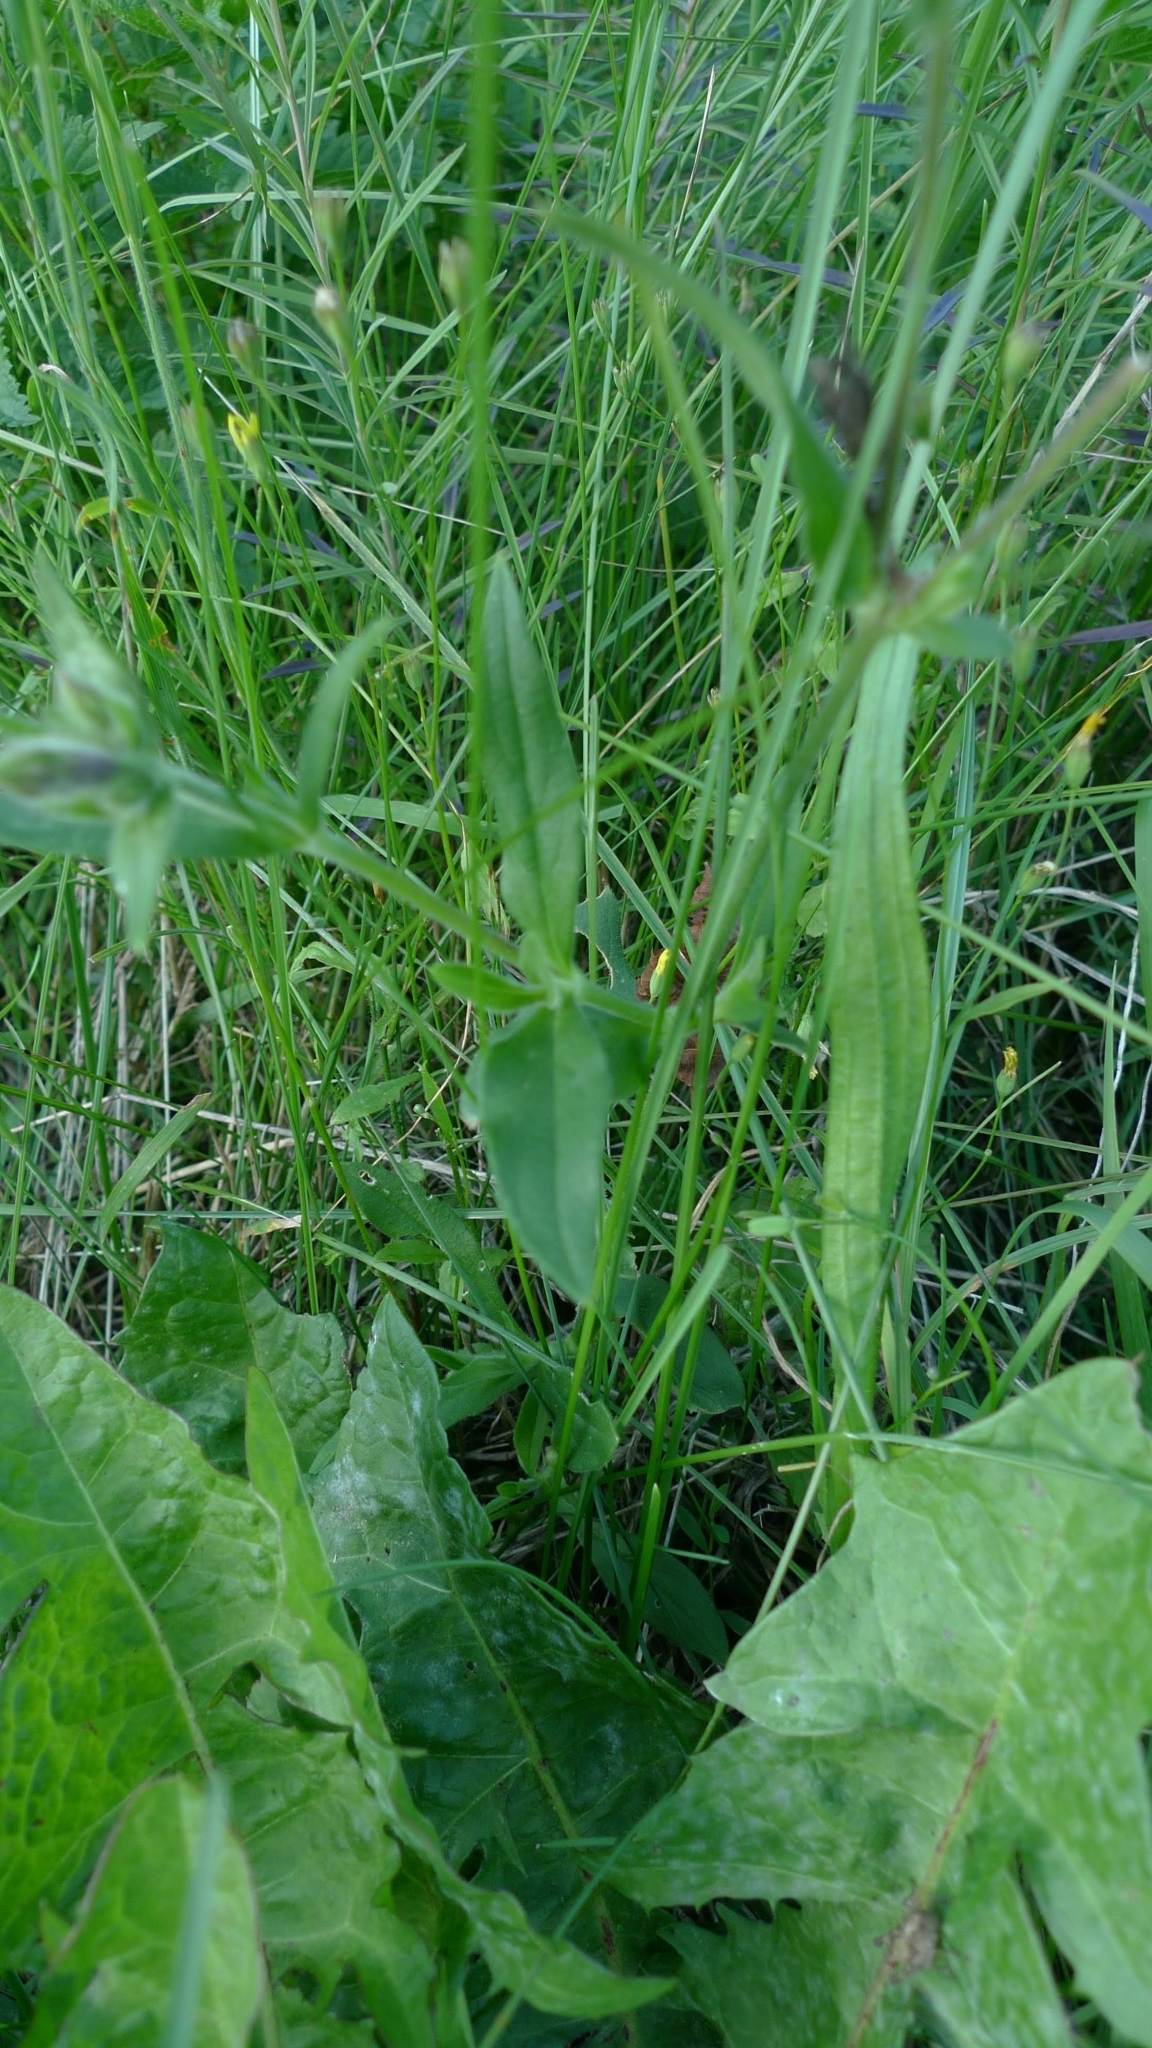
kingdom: Plantae
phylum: Tracheophyta
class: Magnoliopsida
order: Caryophyllales
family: Caryophyllaceae
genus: Silene
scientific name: Silene latifolia
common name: White campion
